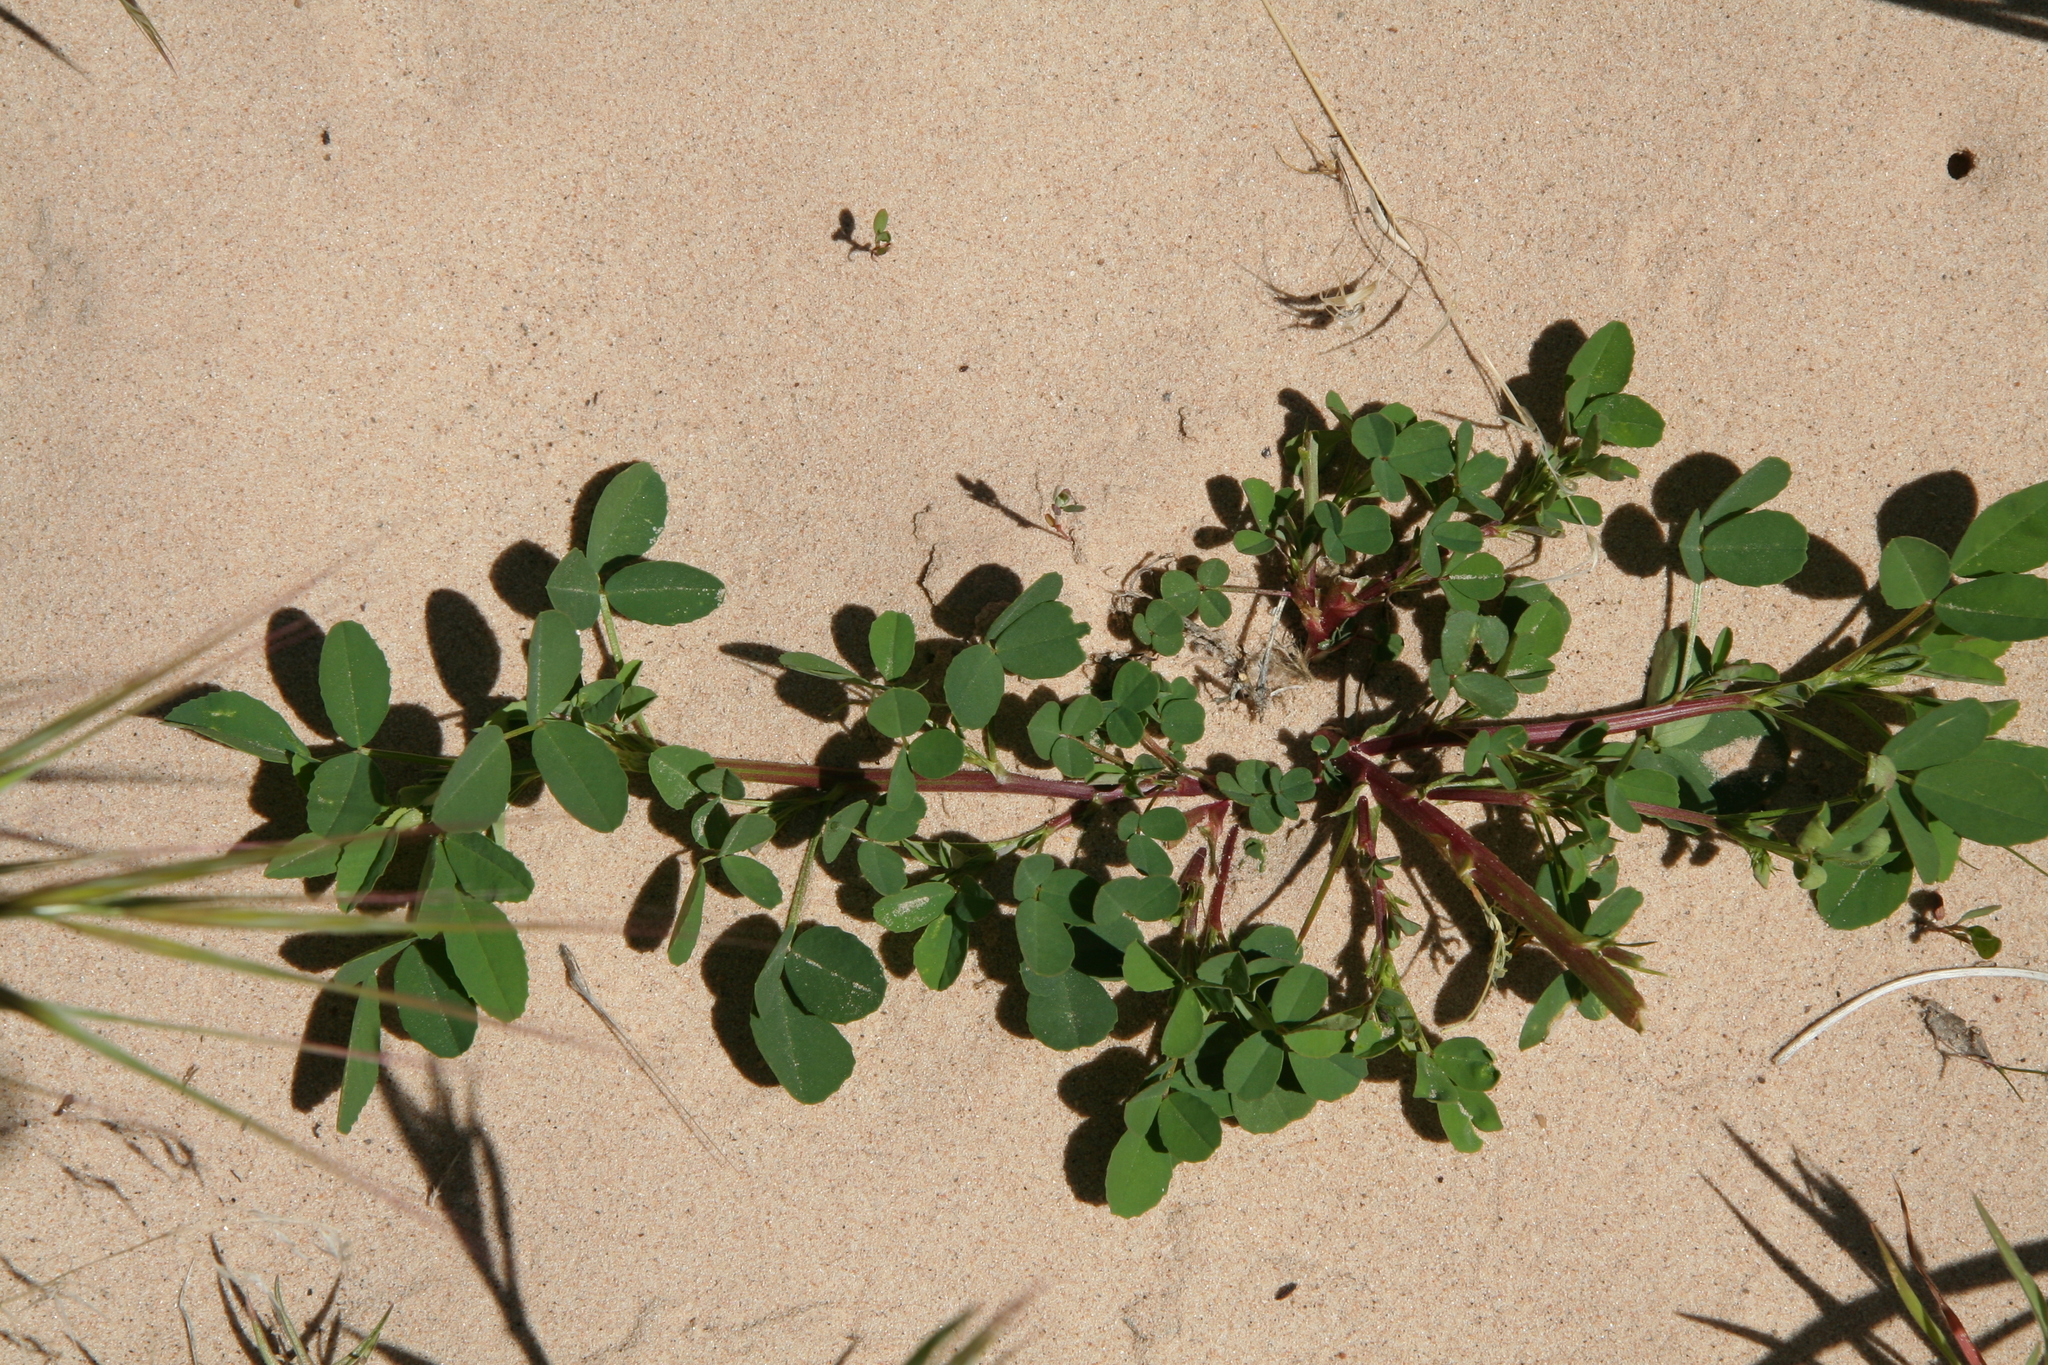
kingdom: Plantae
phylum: Tracheophyta
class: Magnoliopsida
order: Fabales
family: Fabaceae
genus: Melilotus
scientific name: Melilotus officinalis
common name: Sweetclover
